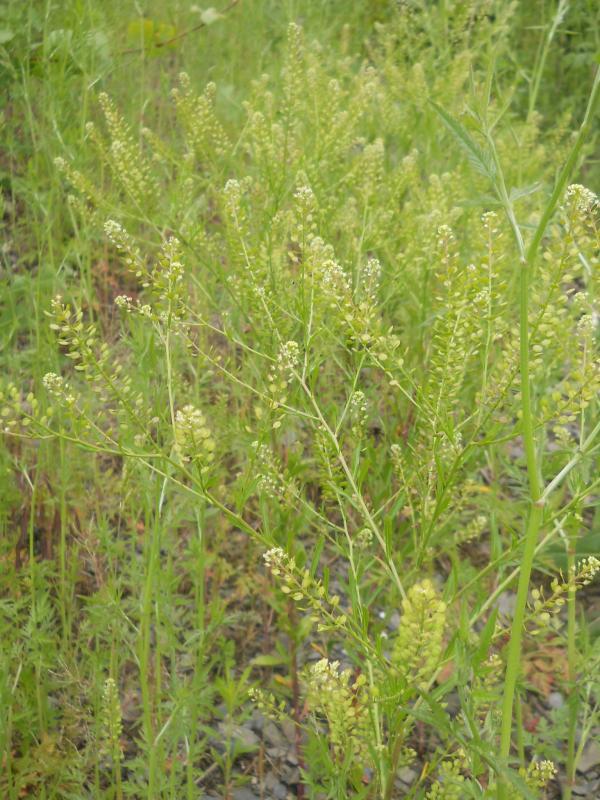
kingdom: Plantae
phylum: Tracheophyta
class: Magnoliopsida
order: Brassicales
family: Brassicaceae
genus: Lepidium
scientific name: Lepidium virginicum
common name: Least pepperwort
